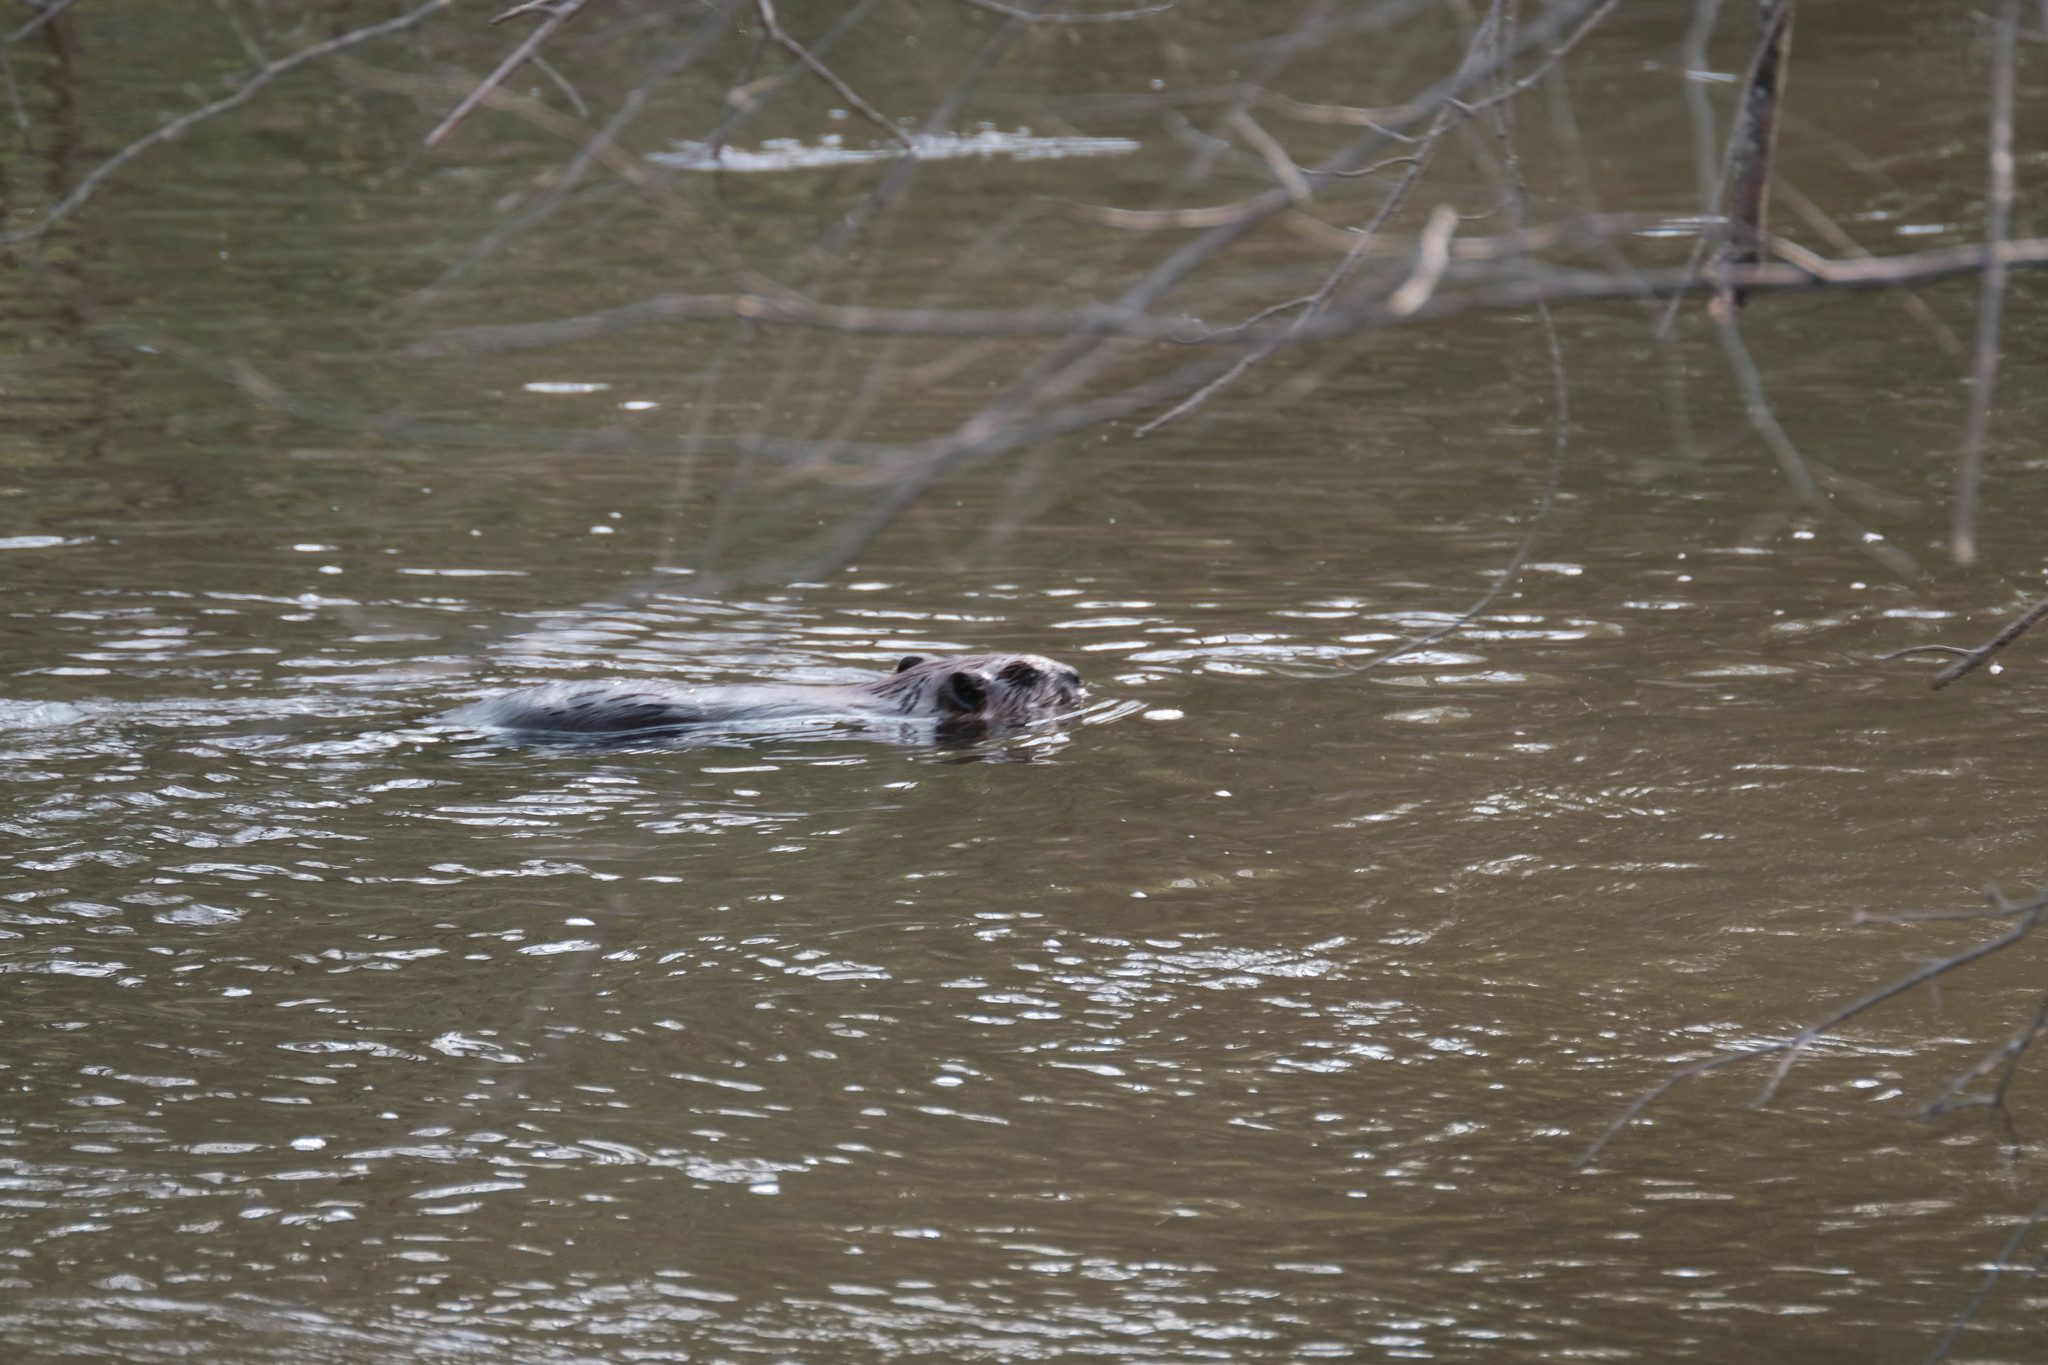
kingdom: Animalia
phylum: Chordata
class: Mammalia
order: Rodentia
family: Castoridae
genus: Castor
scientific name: Castor canadensis
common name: American beaver
